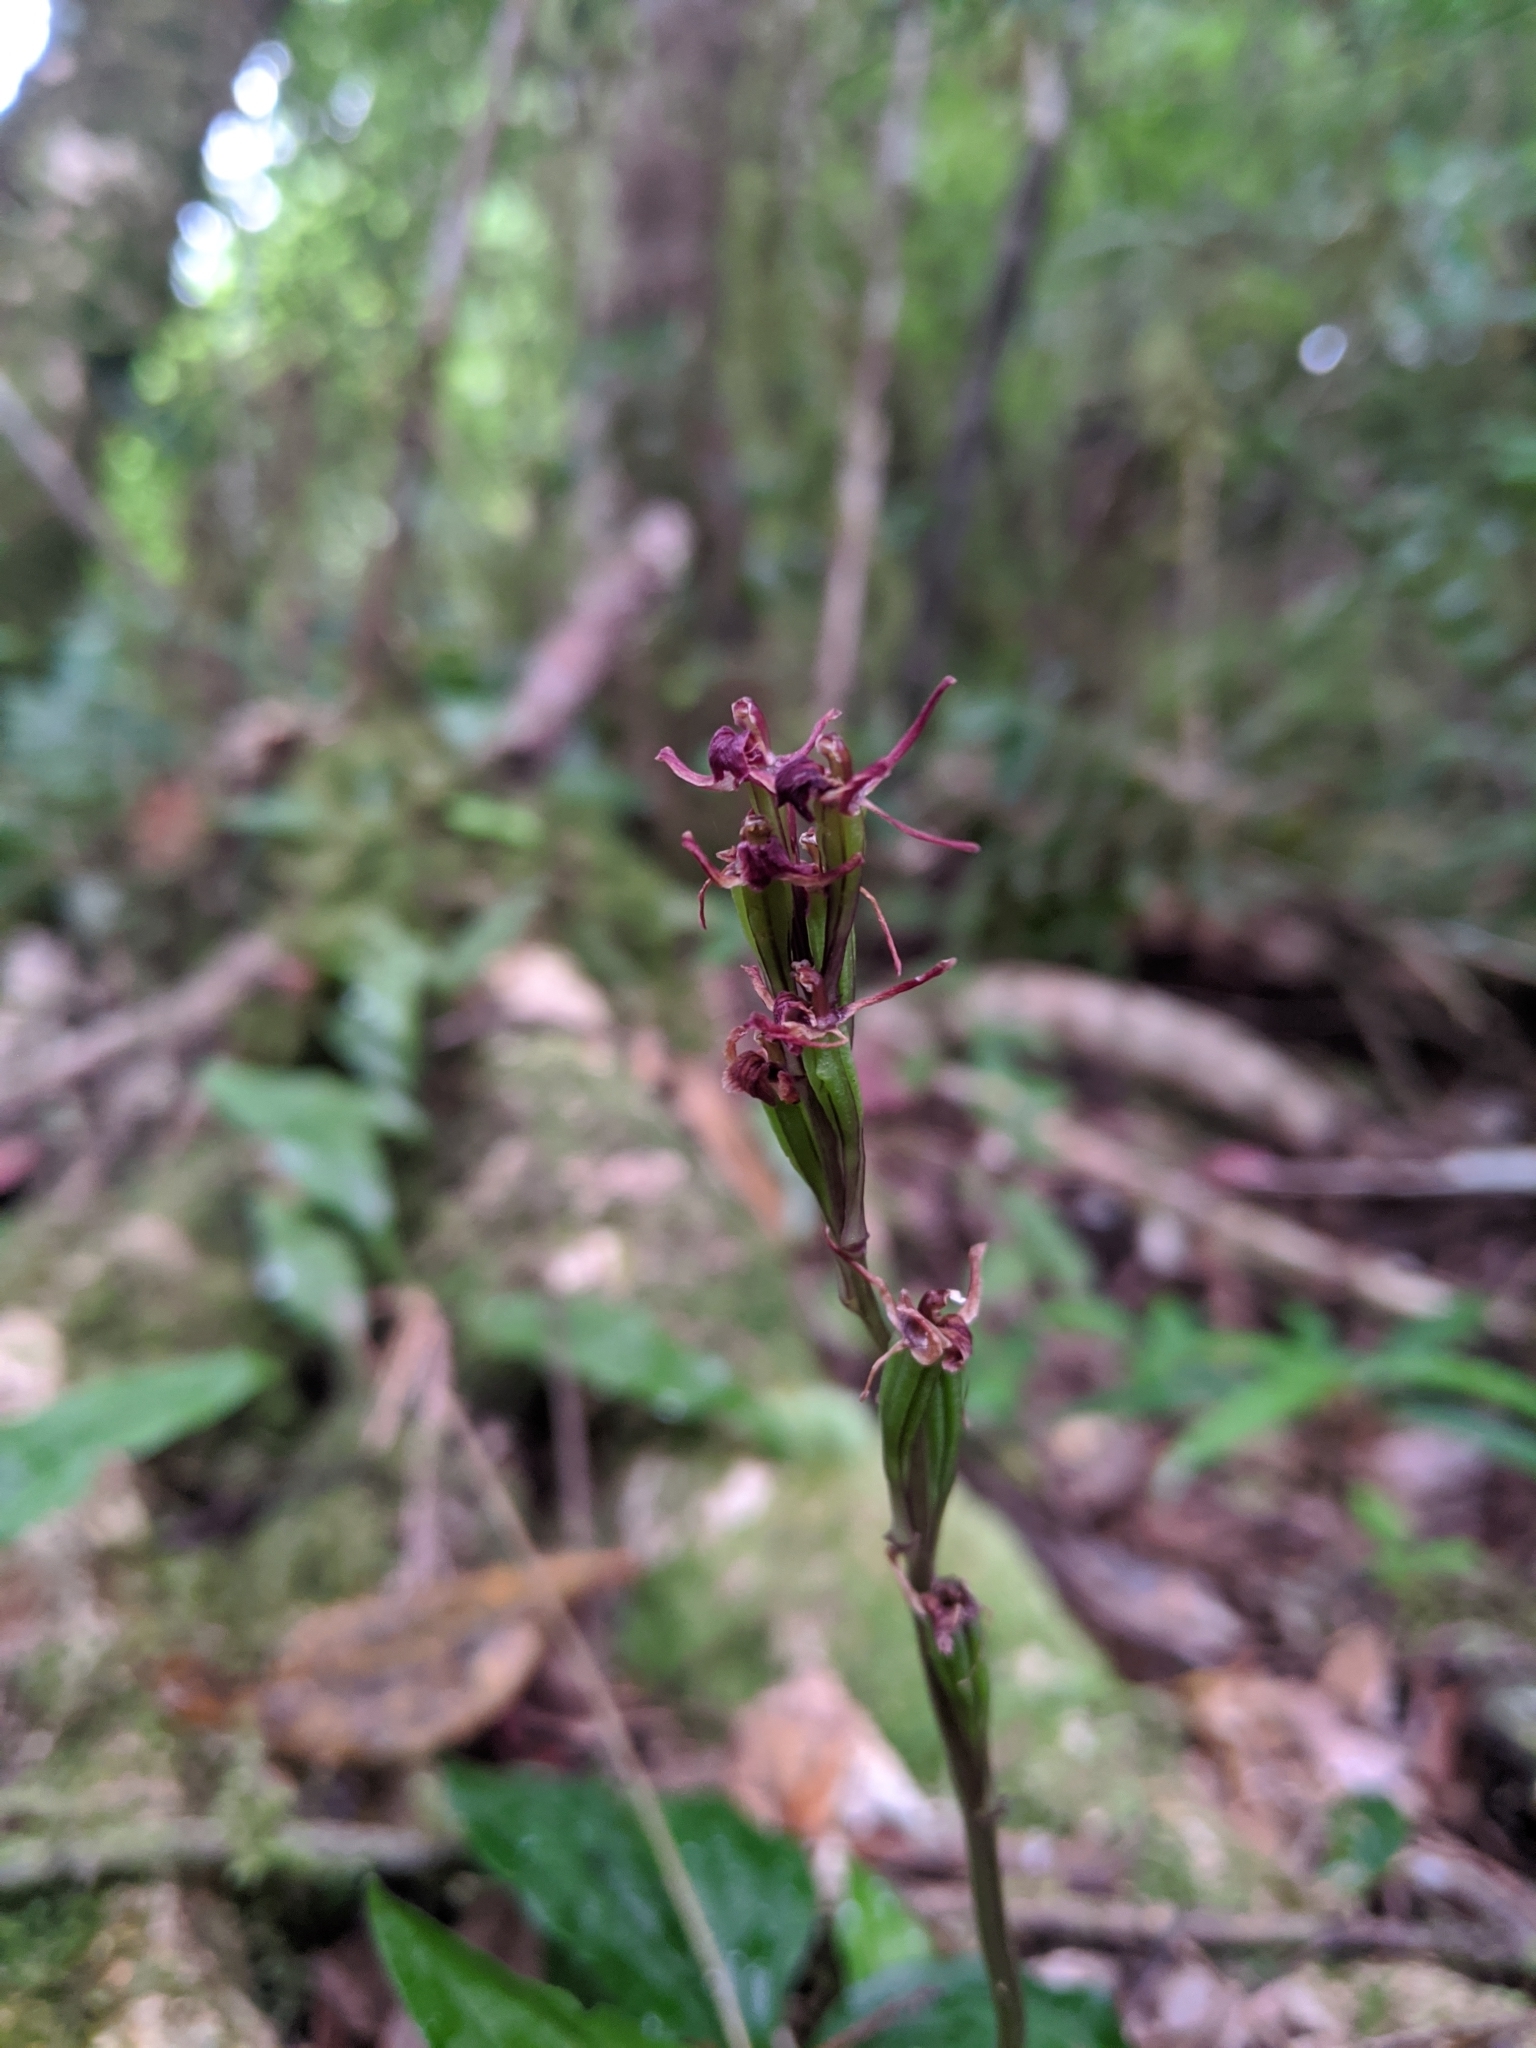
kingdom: Plantae
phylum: Tracheophyta
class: Liliopsida
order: Asparagales
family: Orchidaceae
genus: Liparis
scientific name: Liparis nervosa
